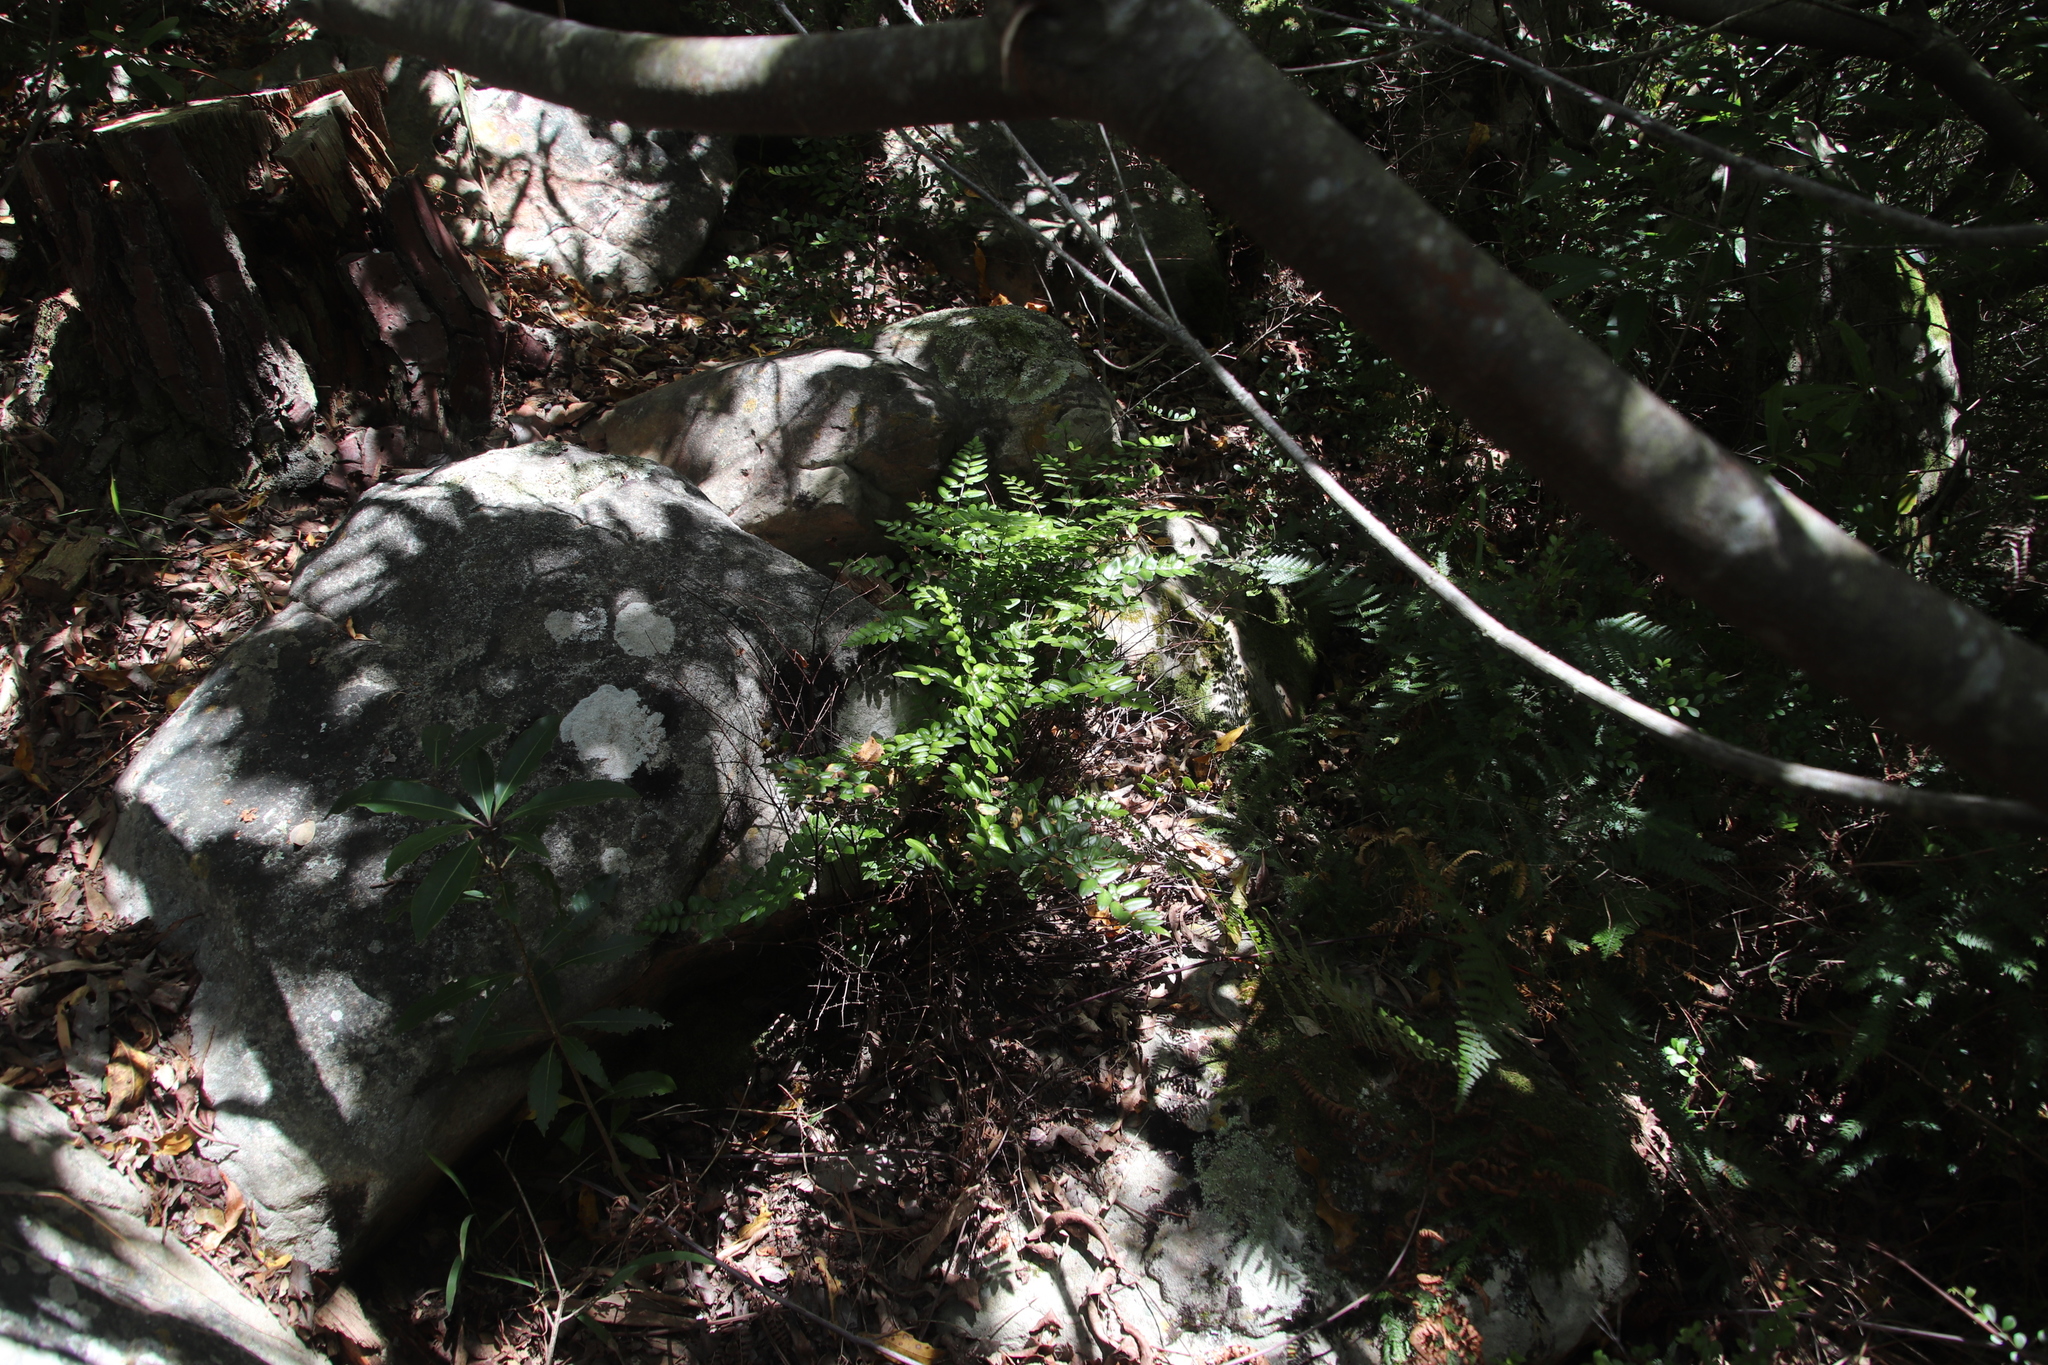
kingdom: Plantae
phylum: Tracheophyta
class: Polypodiopsida
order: Polypodiales
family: Pteridaceae
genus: Pellaea
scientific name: Pellaea pteroides
